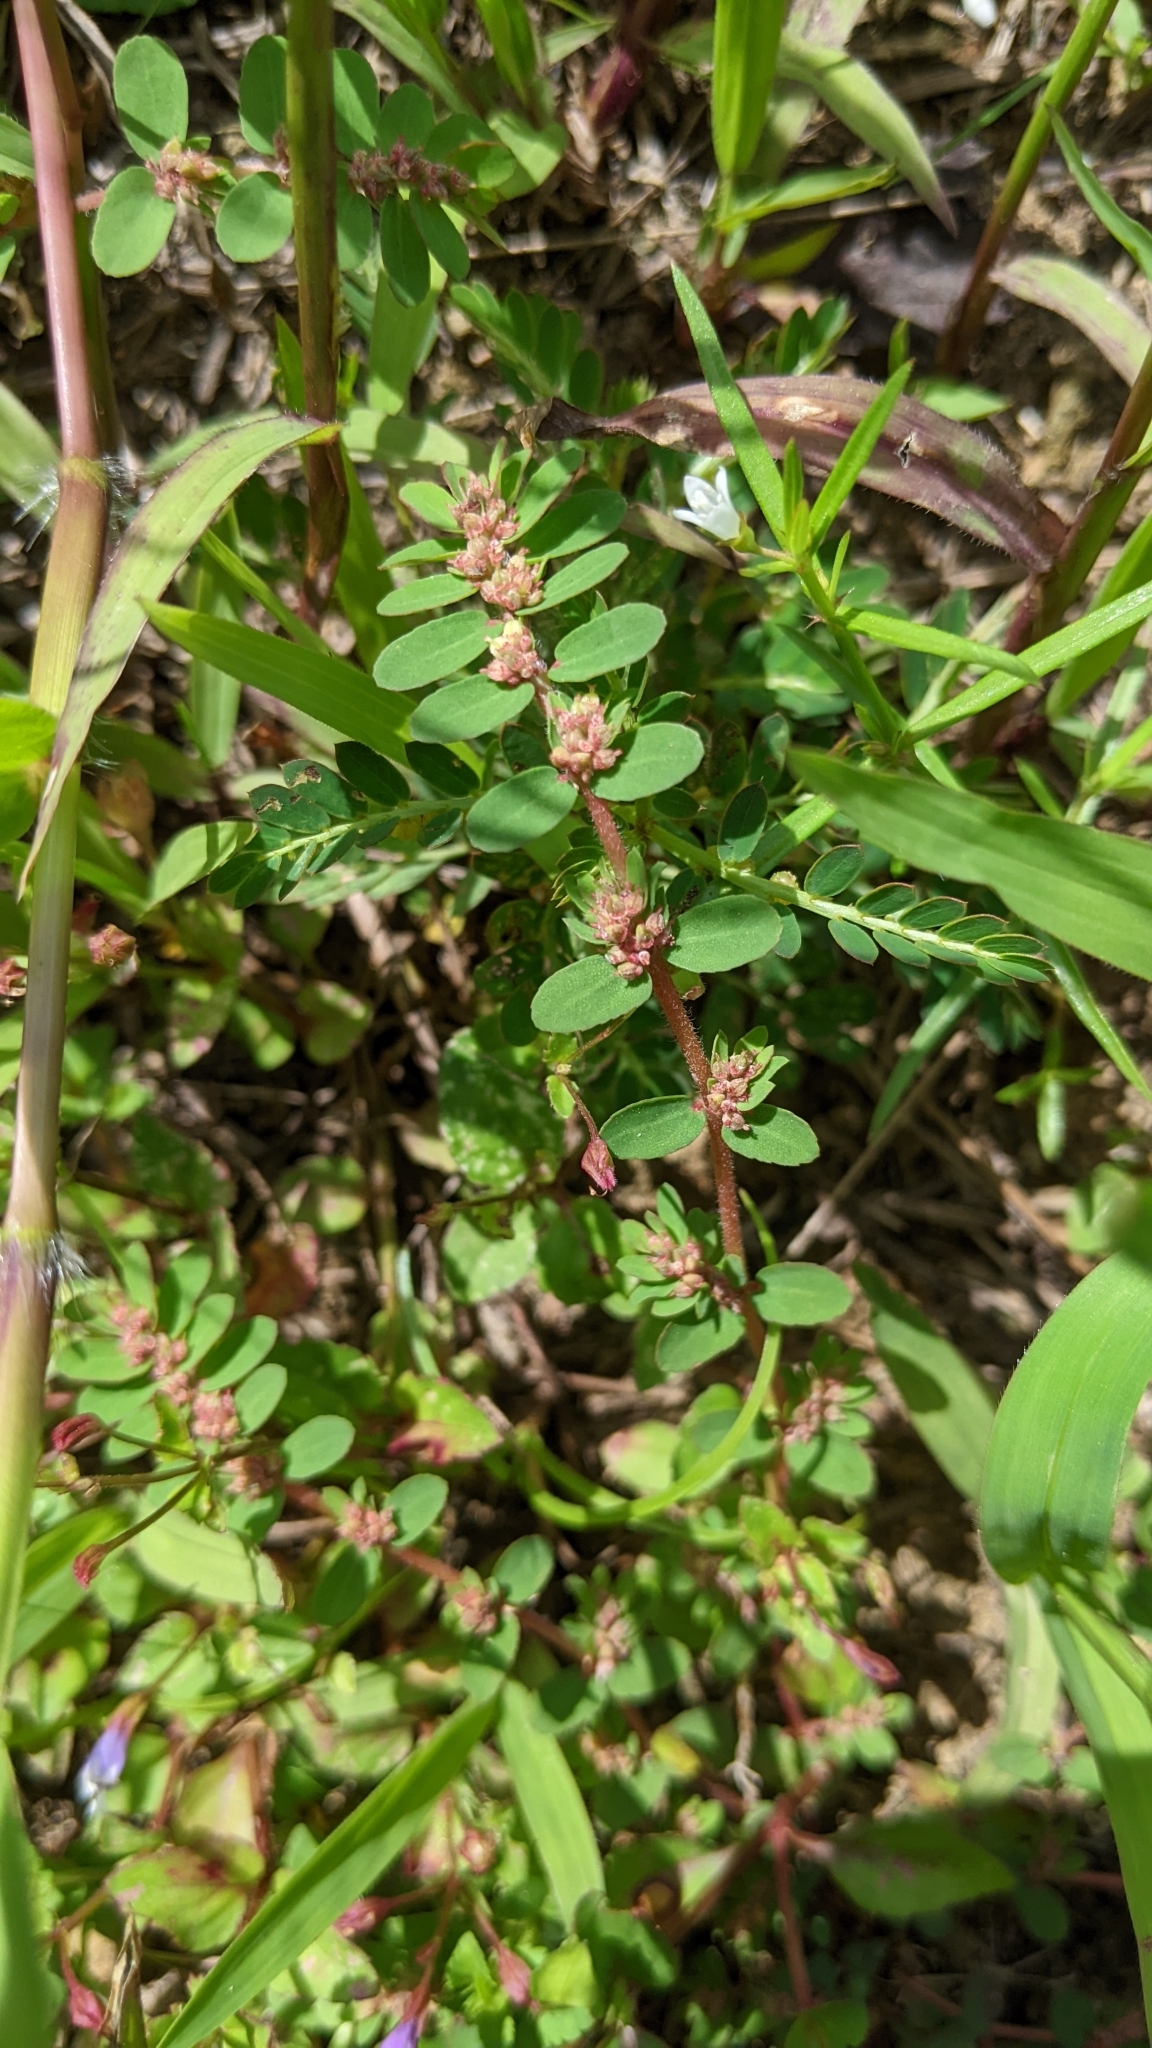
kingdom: Plantae
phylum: Tracheophyta
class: Magnoliopsida
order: Malpighiales
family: Euphorbiaceae
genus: Euphorbia
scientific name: Euphorbia thymifolia
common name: Gulf sandmat
